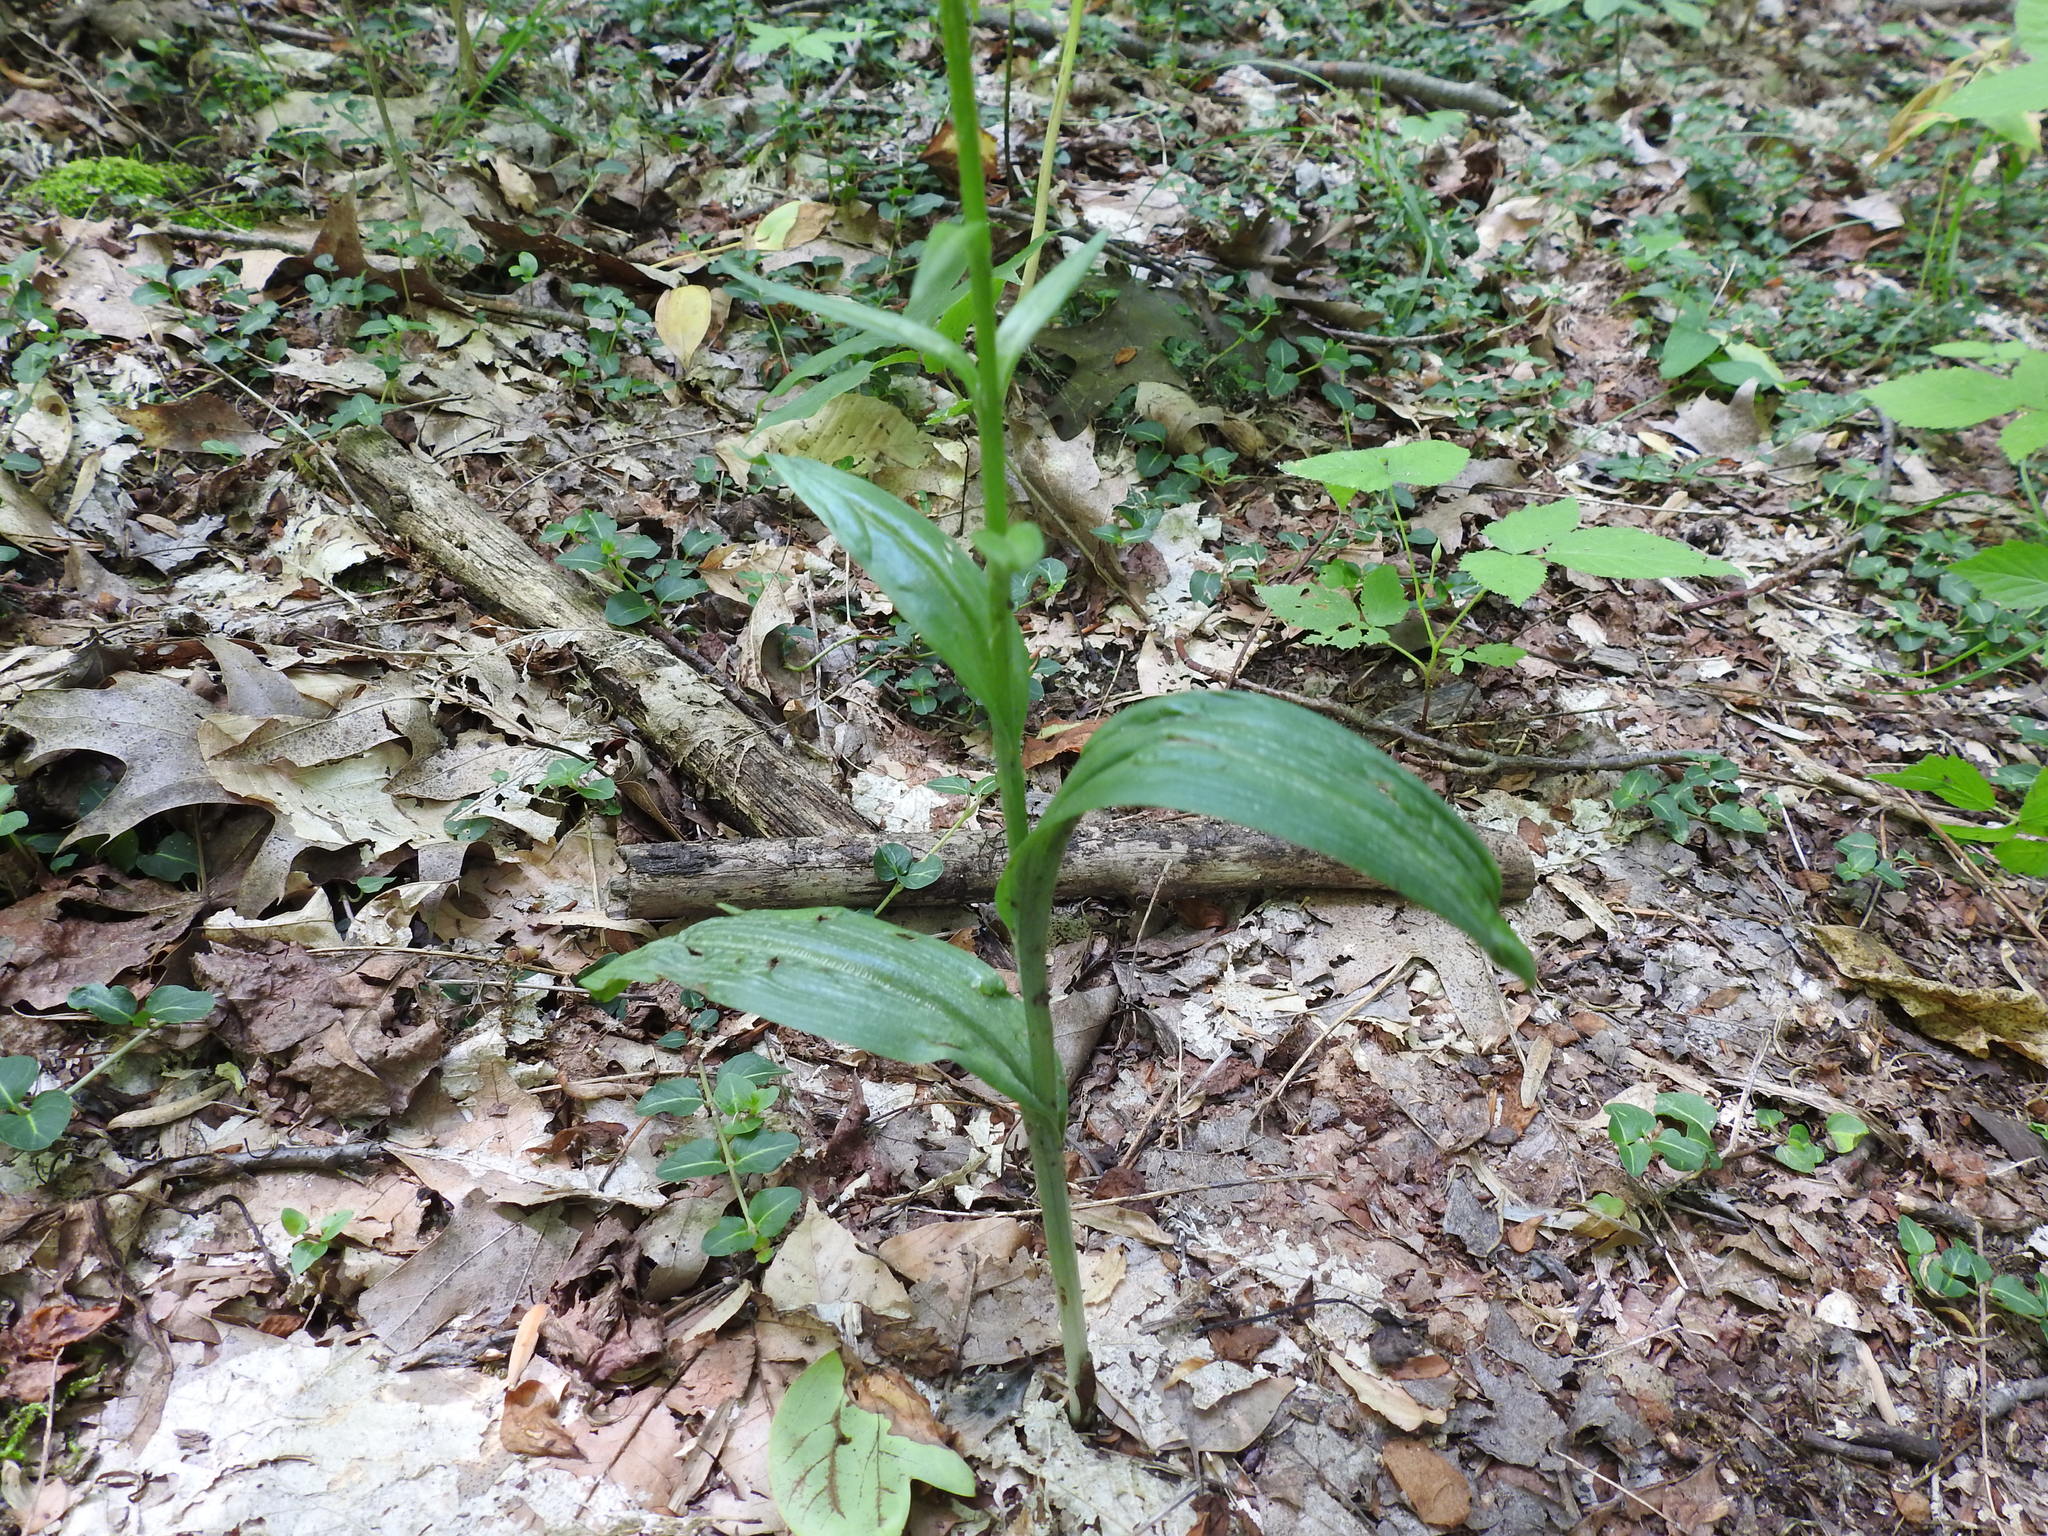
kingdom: Plantae
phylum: Tracheophyta
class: Liliopsida
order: Asparagales
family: Orchidaceae
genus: Platanthera
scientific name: Platanthera lacera
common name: Green fringed orchid
